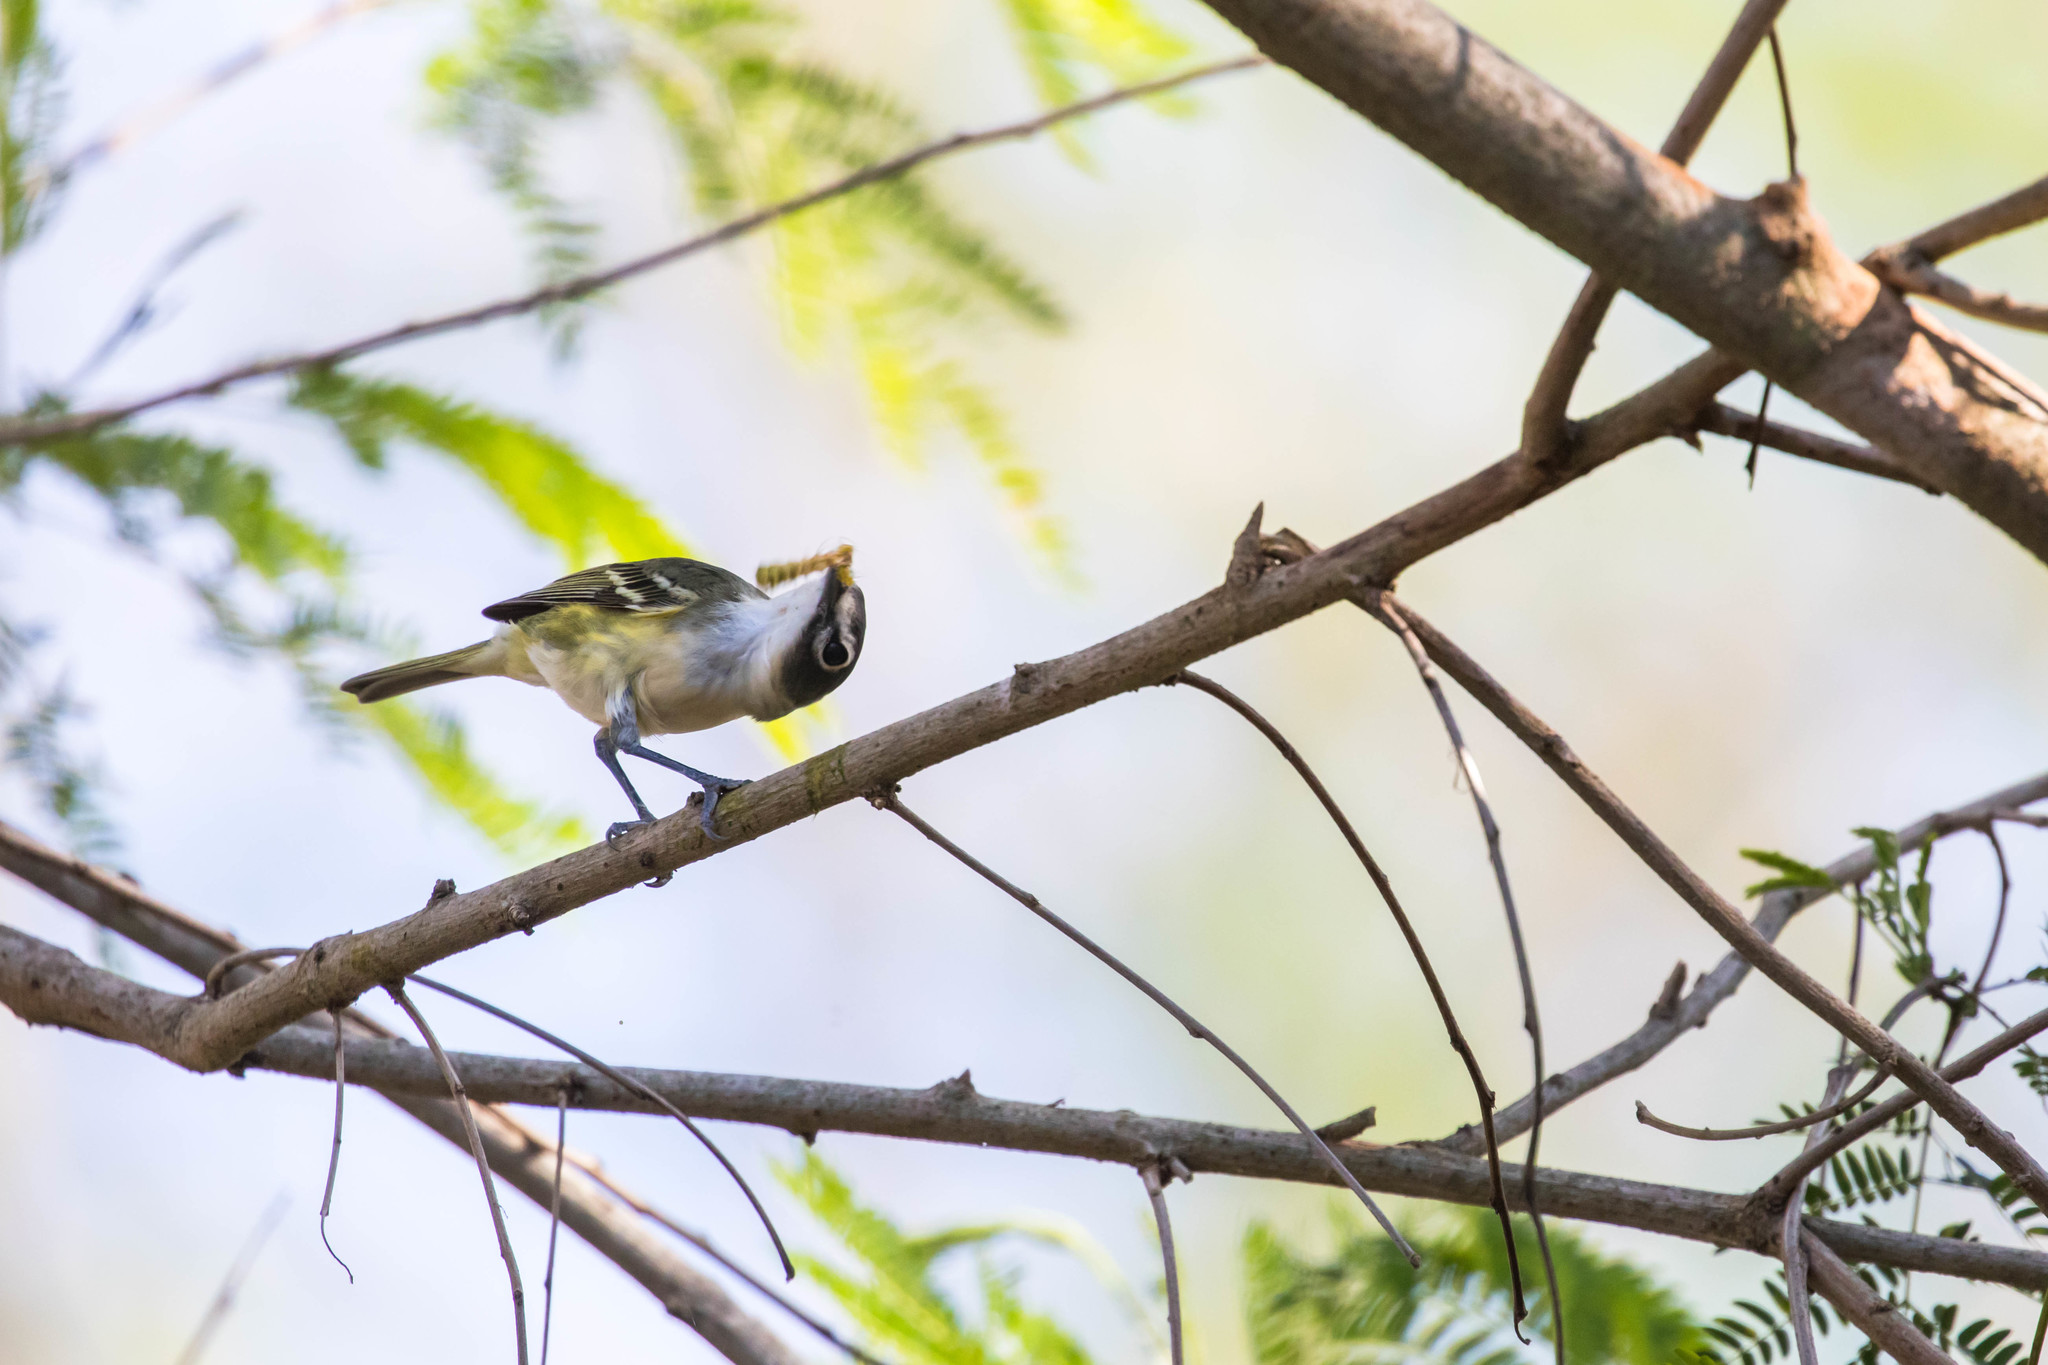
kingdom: Animalia
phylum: Chordata
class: Aves
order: Passeriformes
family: Vireonidae
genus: Vireo
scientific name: Vireo solitarius
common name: Blue-headed vireo
